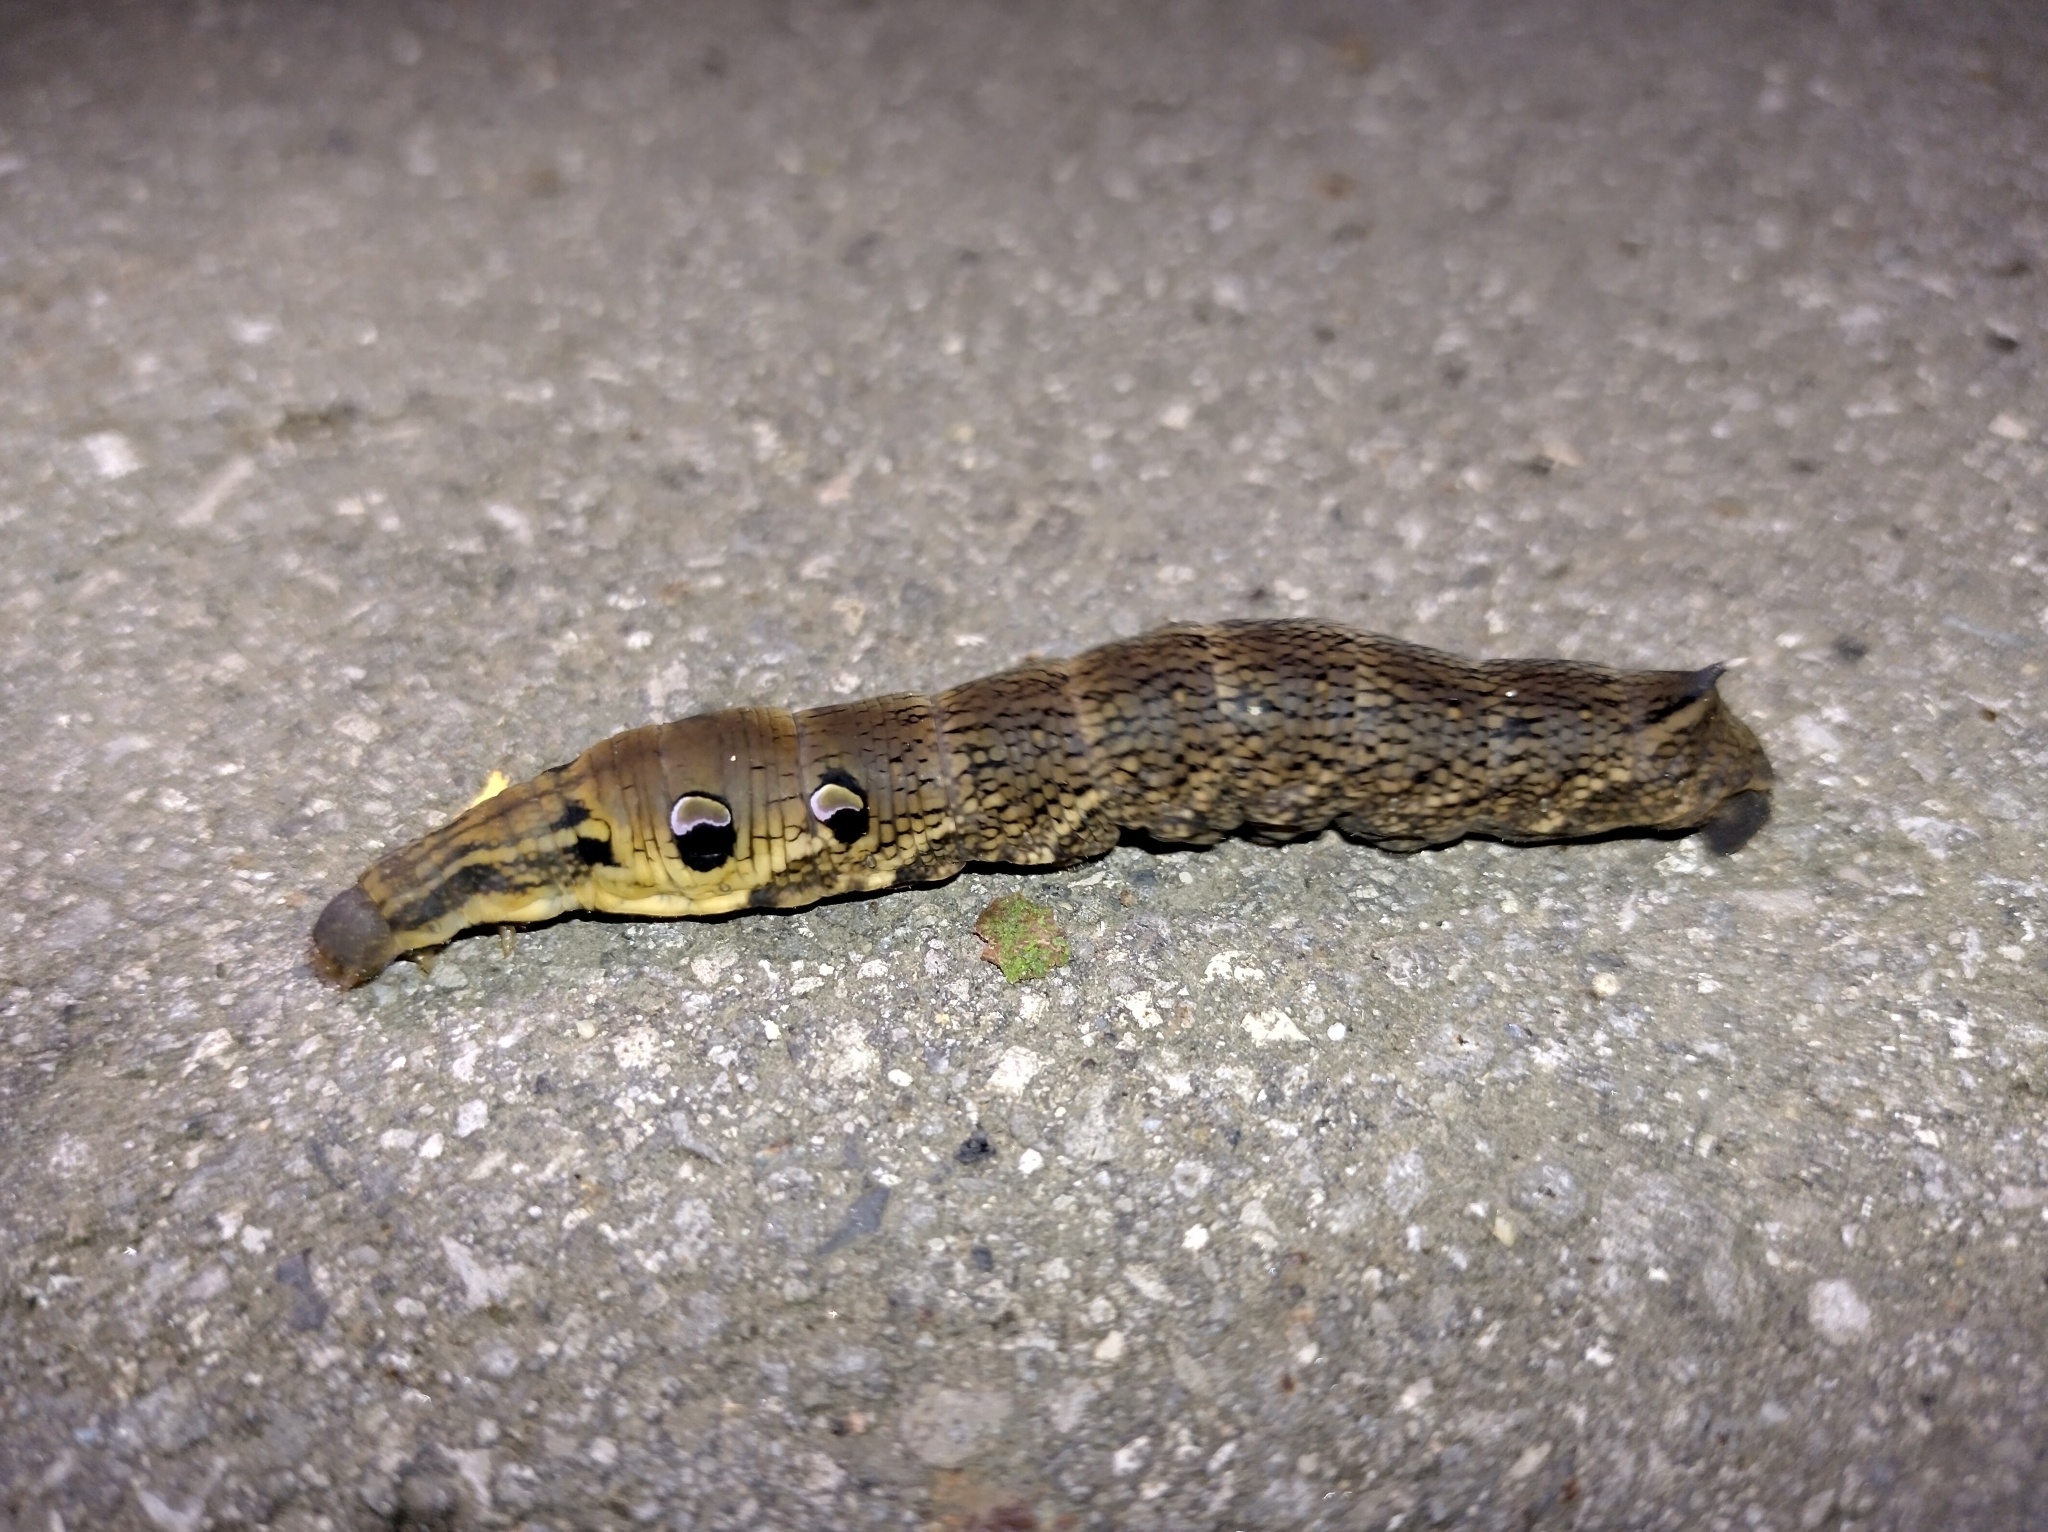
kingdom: Animalia
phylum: Arthropoda
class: Insecta
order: Lepidoptera
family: Sphingidae
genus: Deilephila
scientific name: Deilephila elpenor
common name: Elephant hawk-moth
